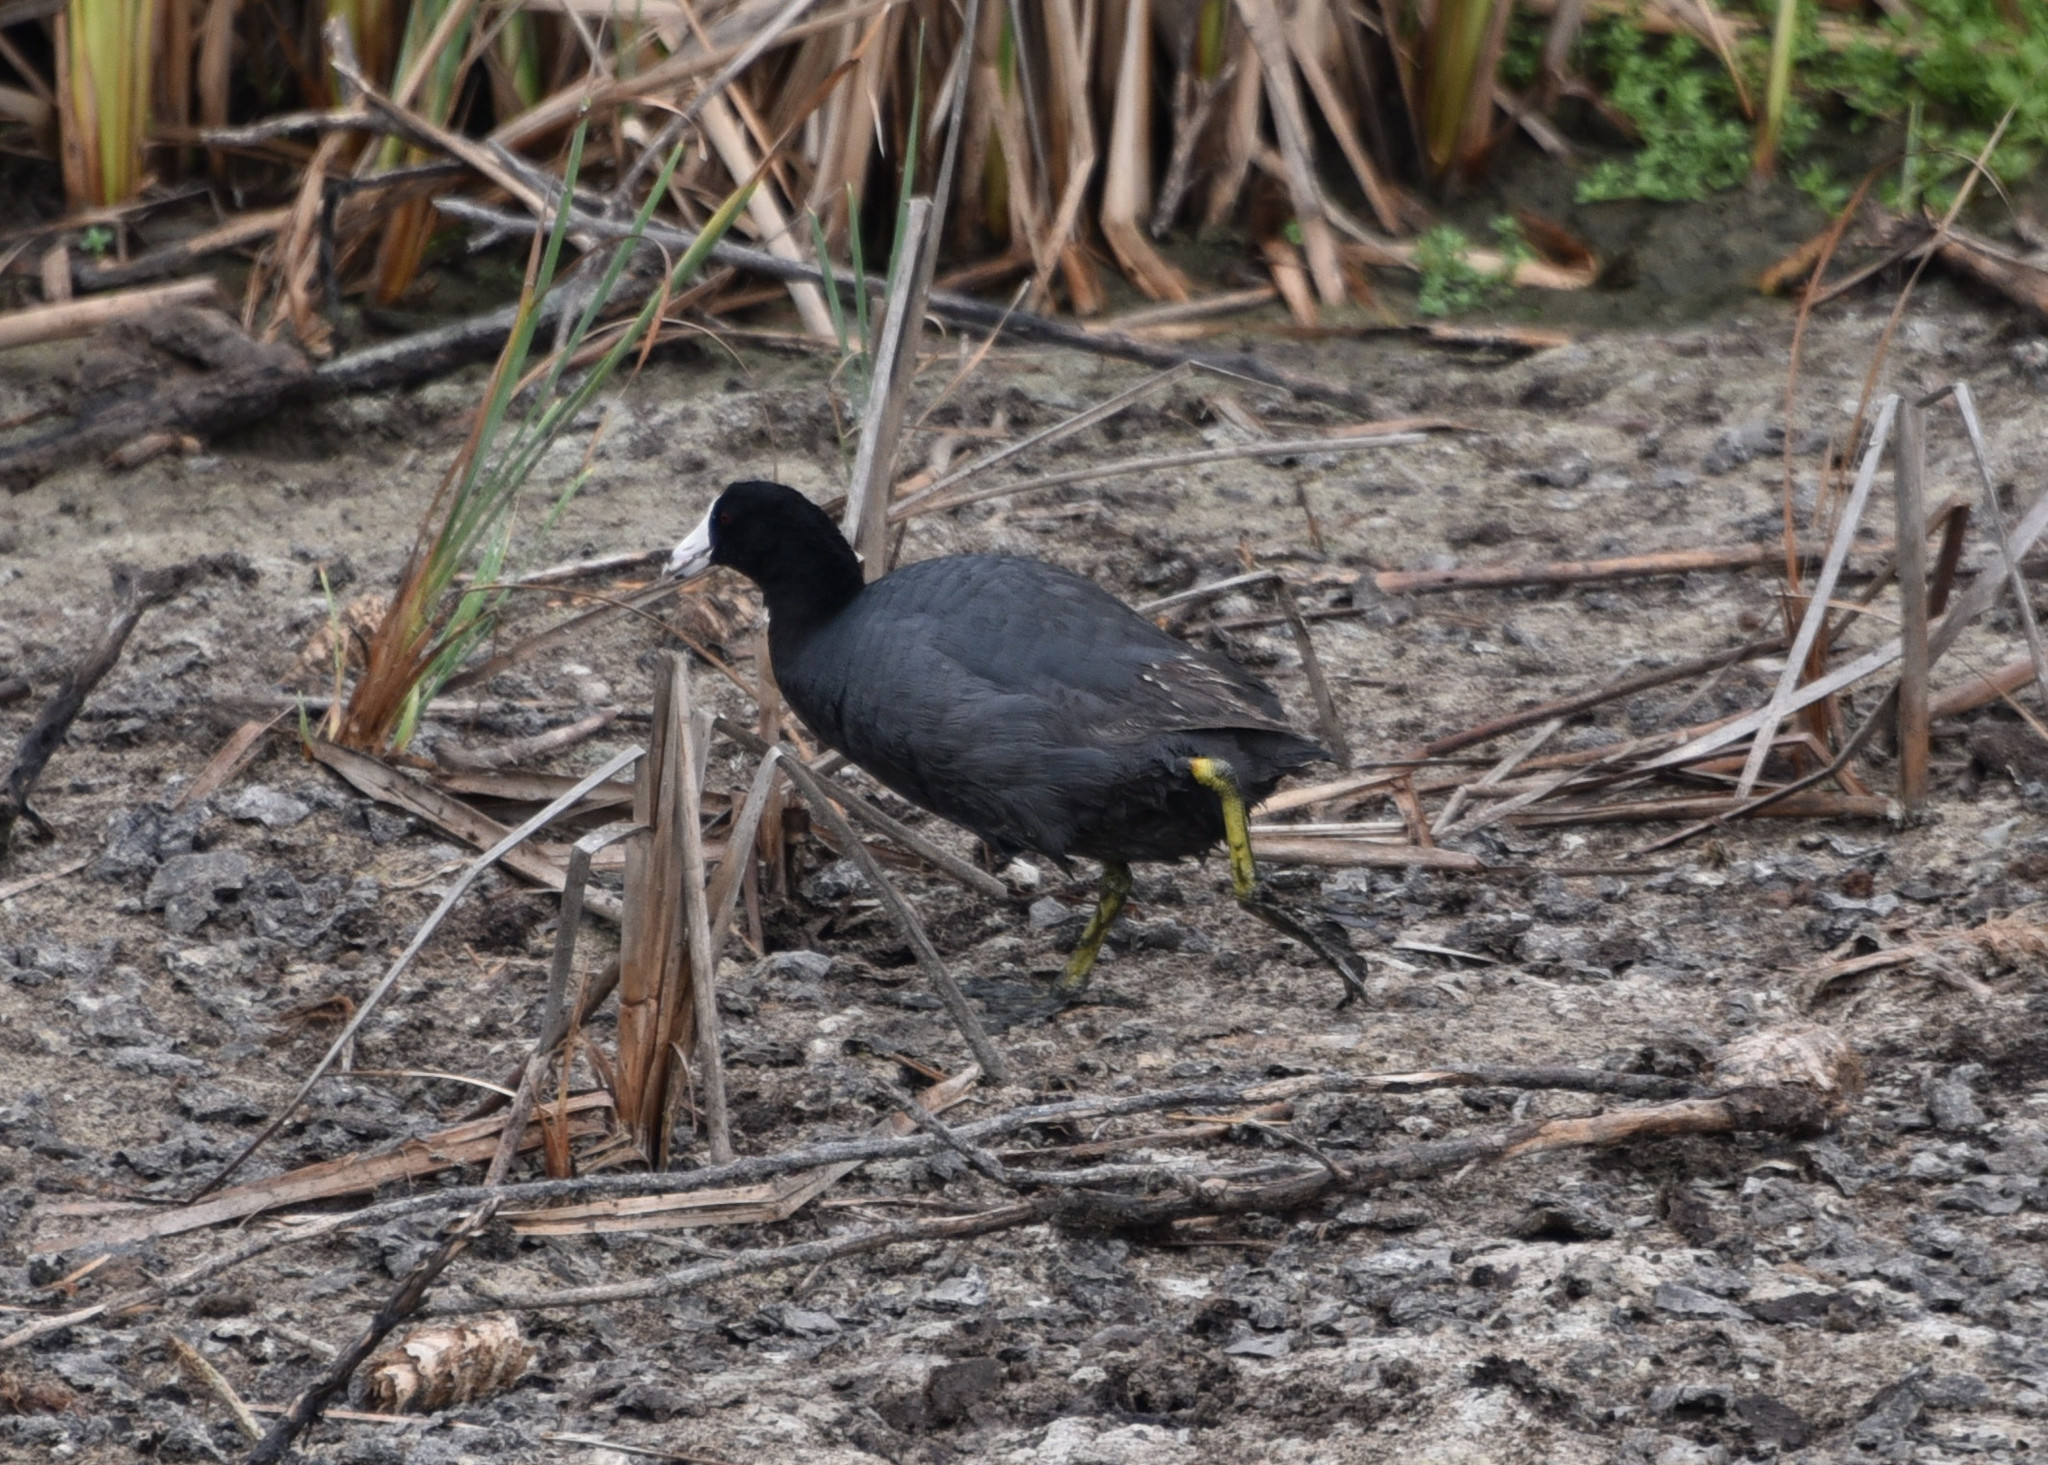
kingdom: Animalia
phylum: Chordata
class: Aves
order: Gruiformes
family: Rallidae
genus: Fulica
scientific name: Fulica americana
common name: American coot
